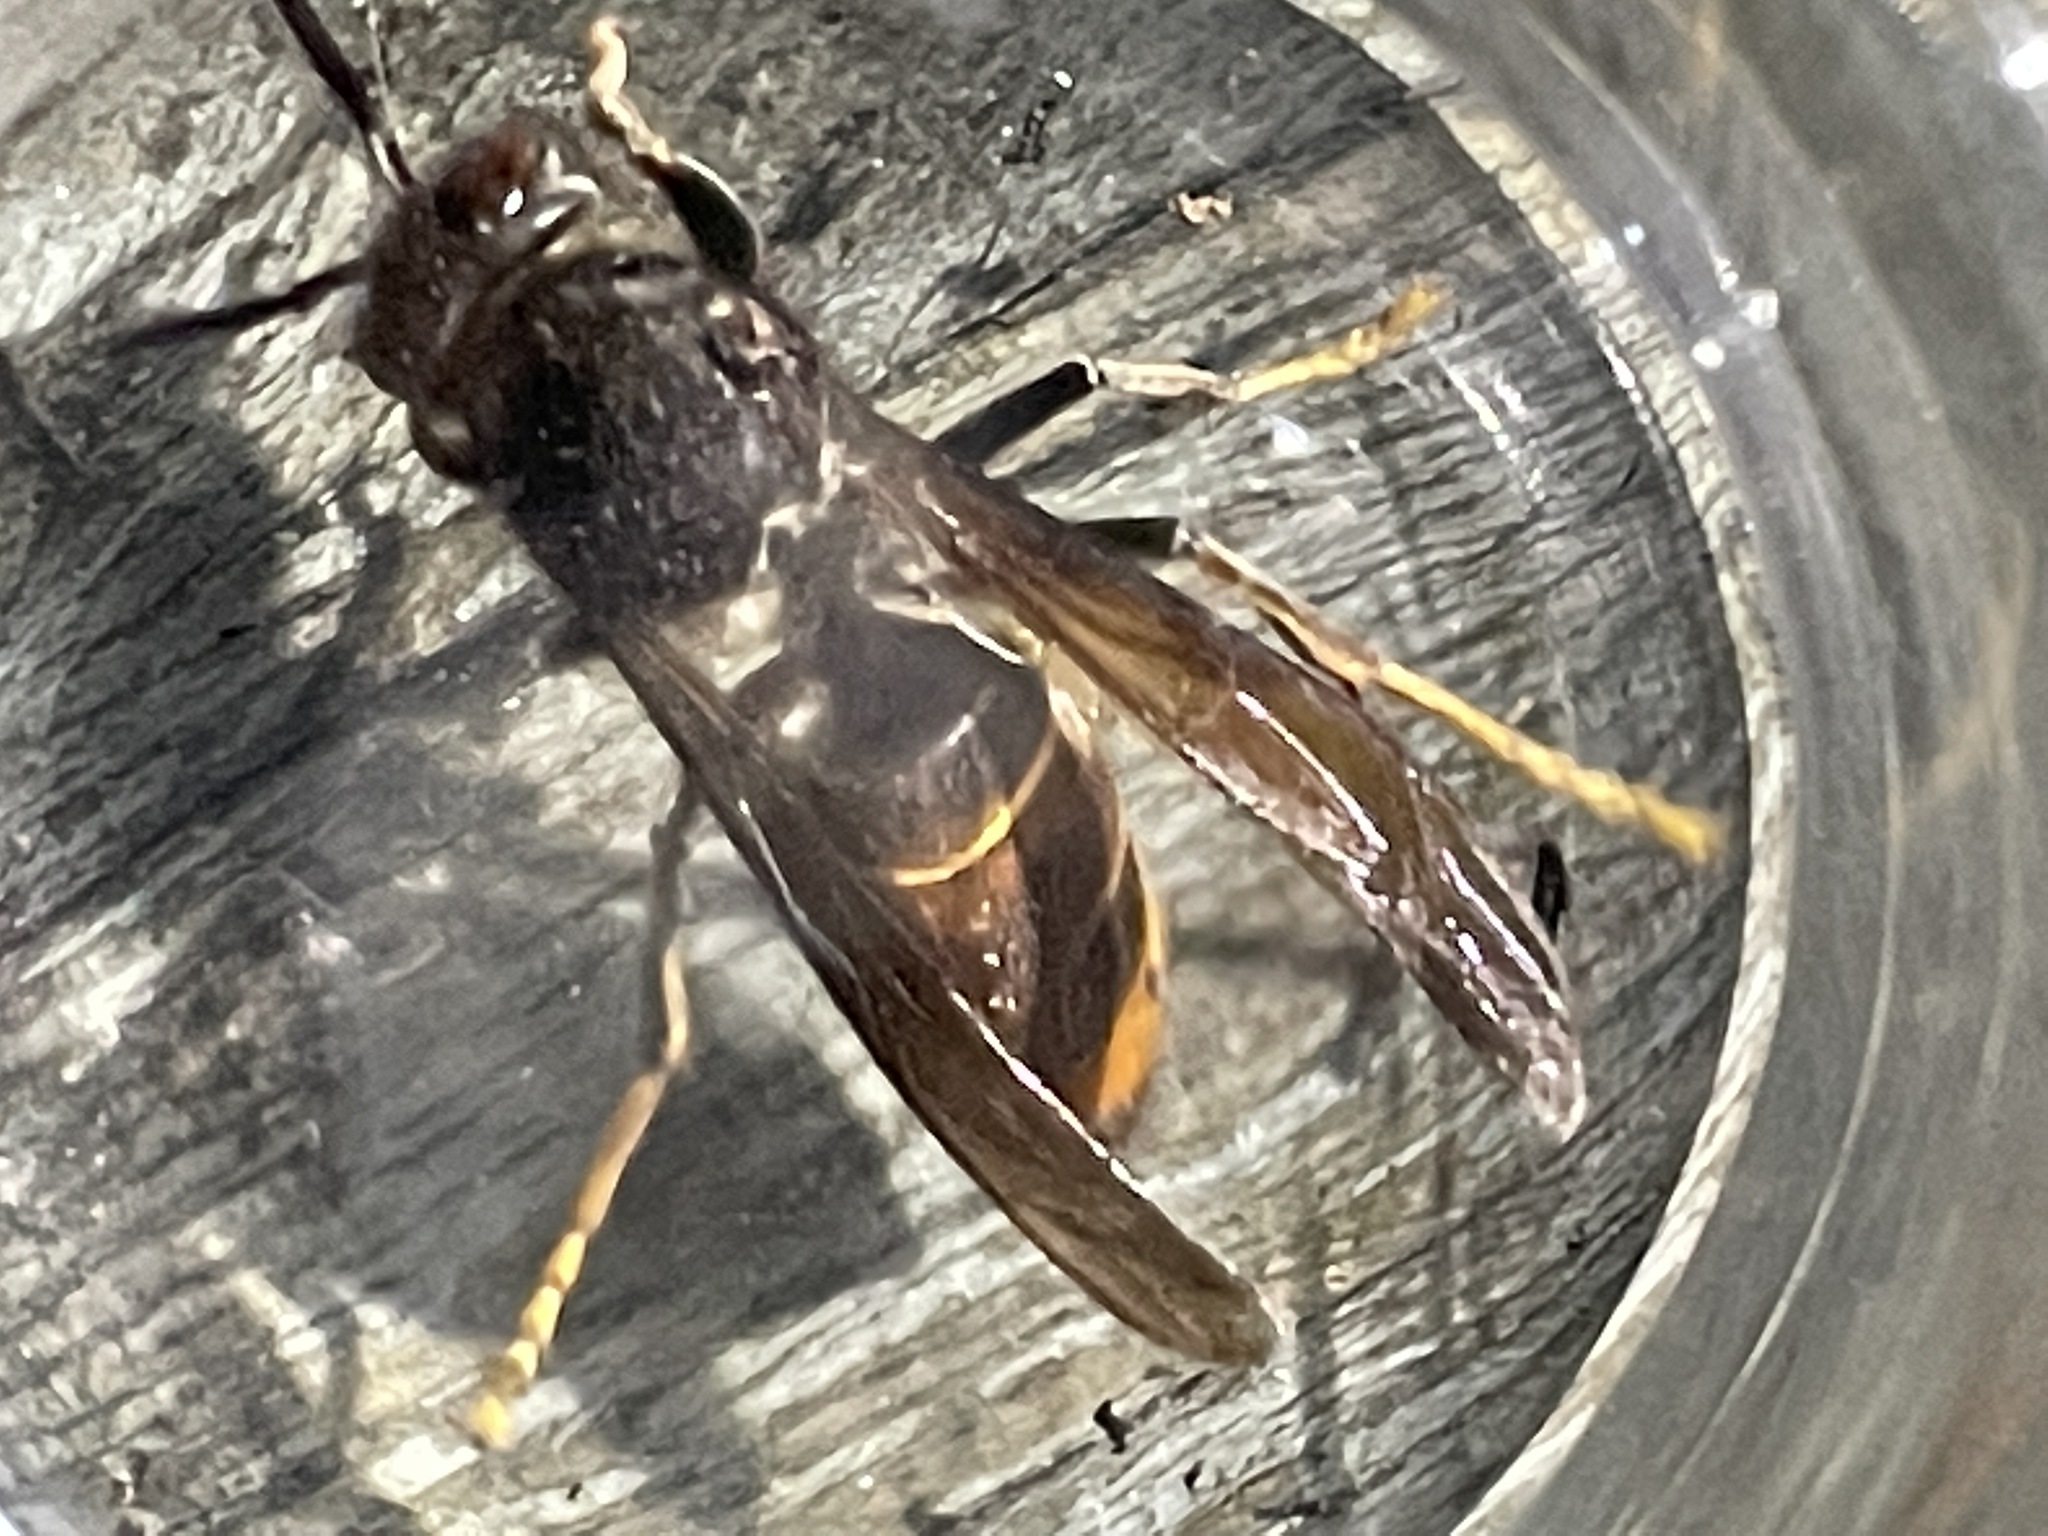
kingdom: Animalia
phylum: Arthropoda
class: Insecta
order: Hymenoptera
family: Vespidae
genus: Vespa
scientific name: Vespa velutina
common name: Asian hornet
